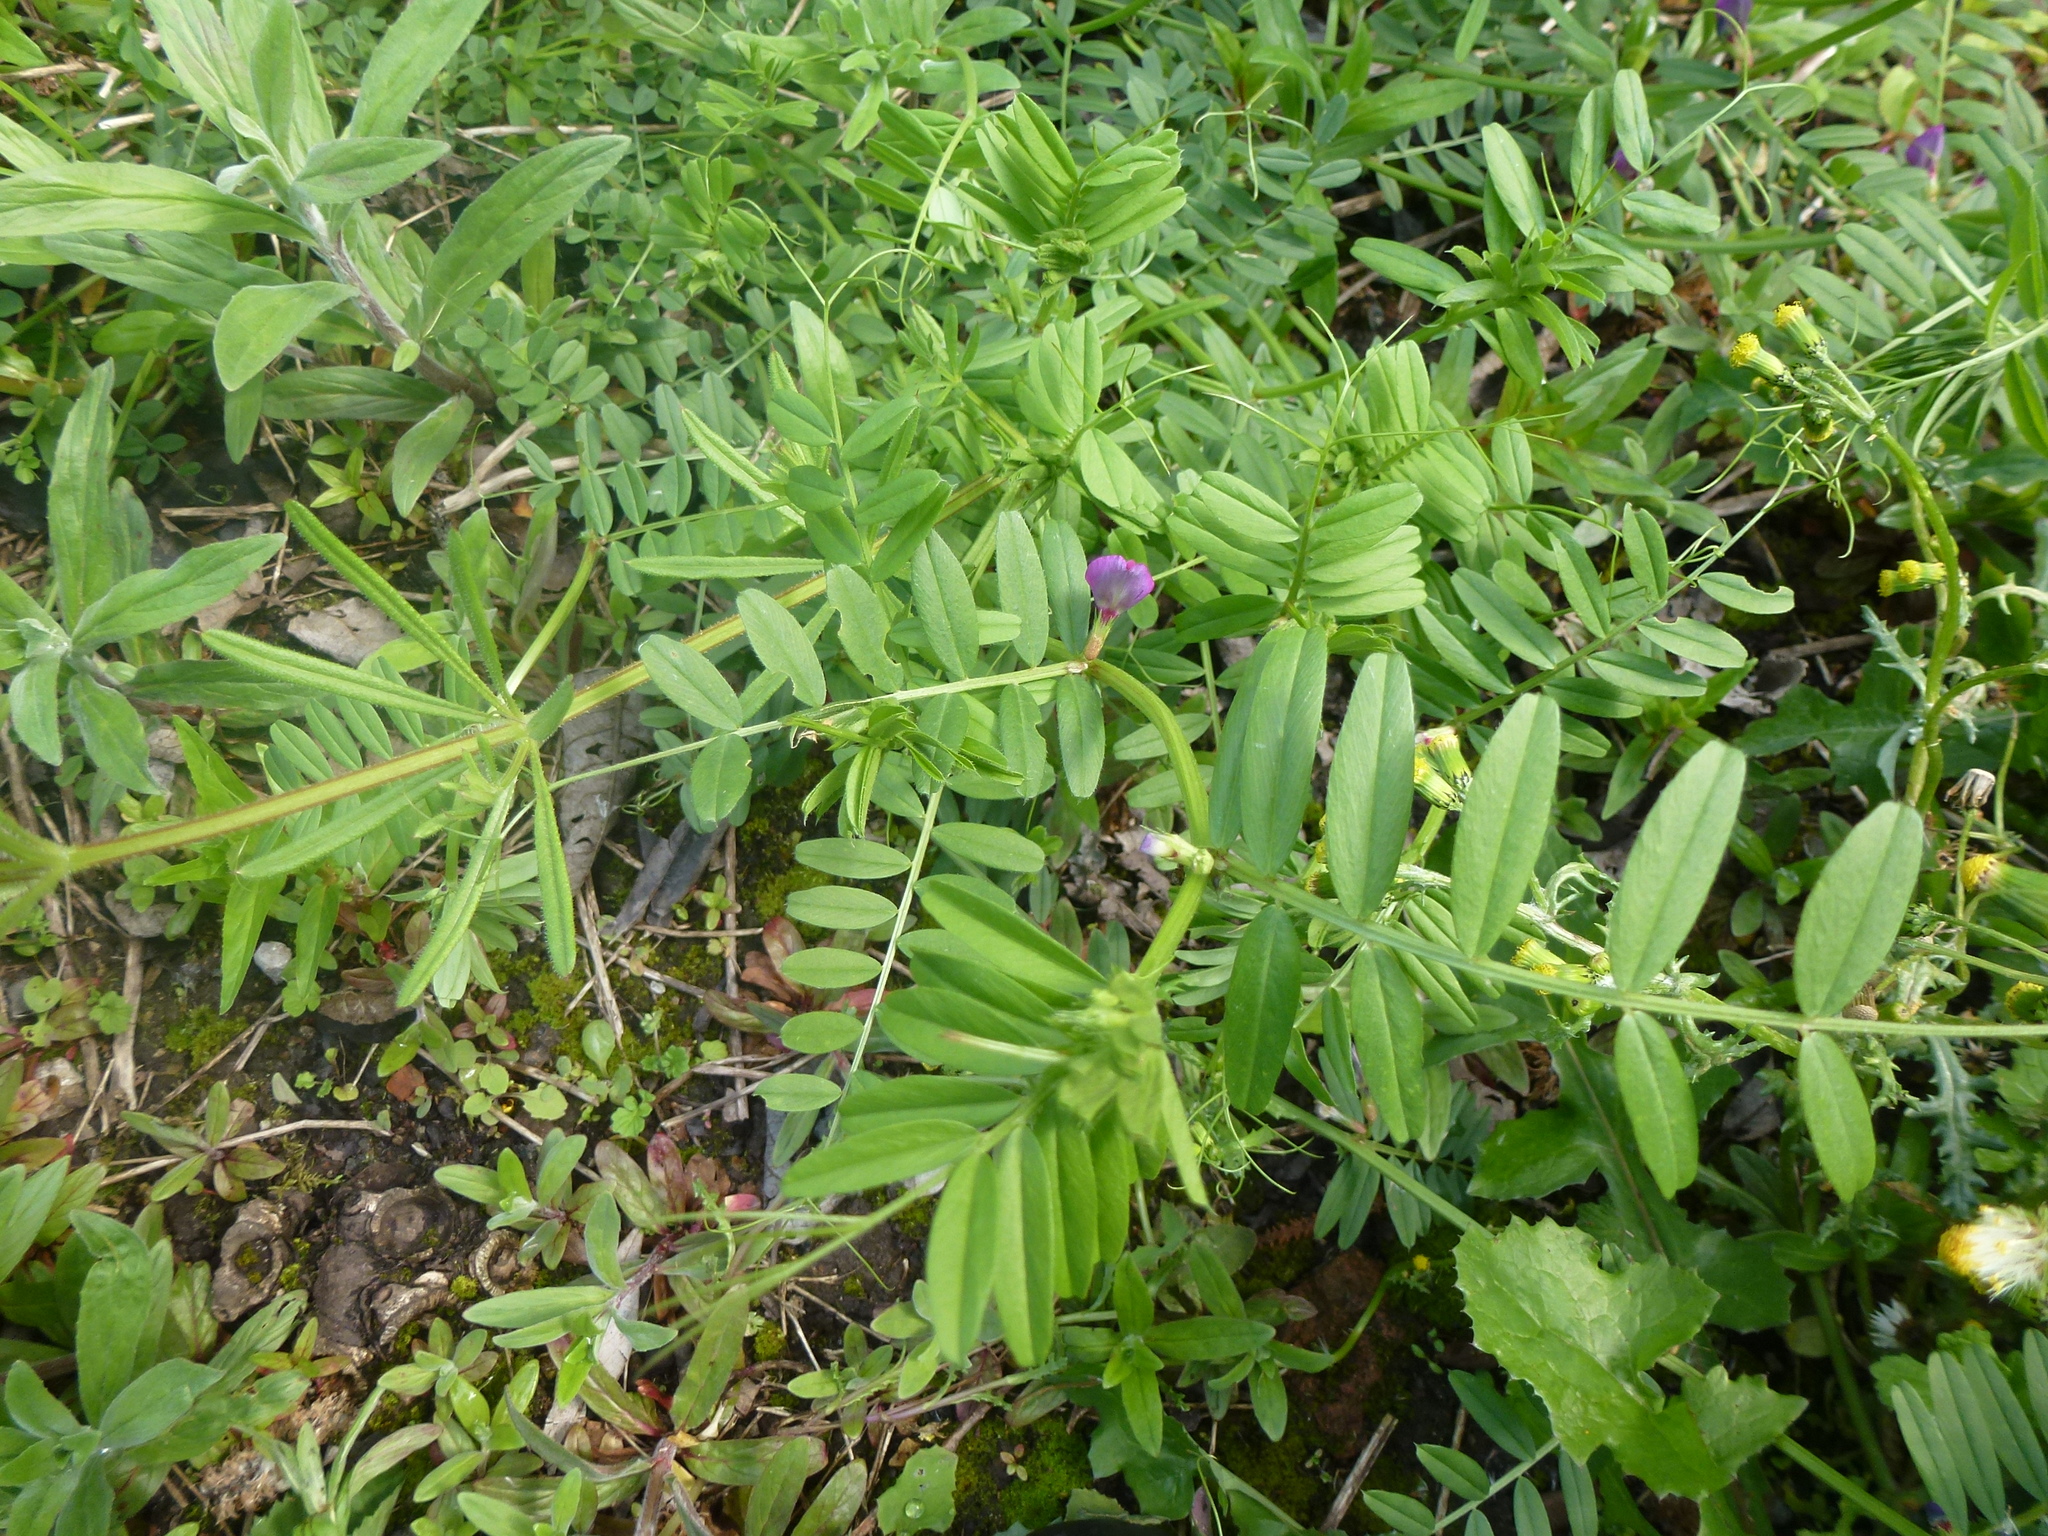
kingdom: Plantae
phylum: Tracheophyta
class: Magnoliopsida
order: Asterales
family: Asteraceae
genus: Senecio
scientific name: Senecio vulgaris
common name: Old-man-in-the-spring
